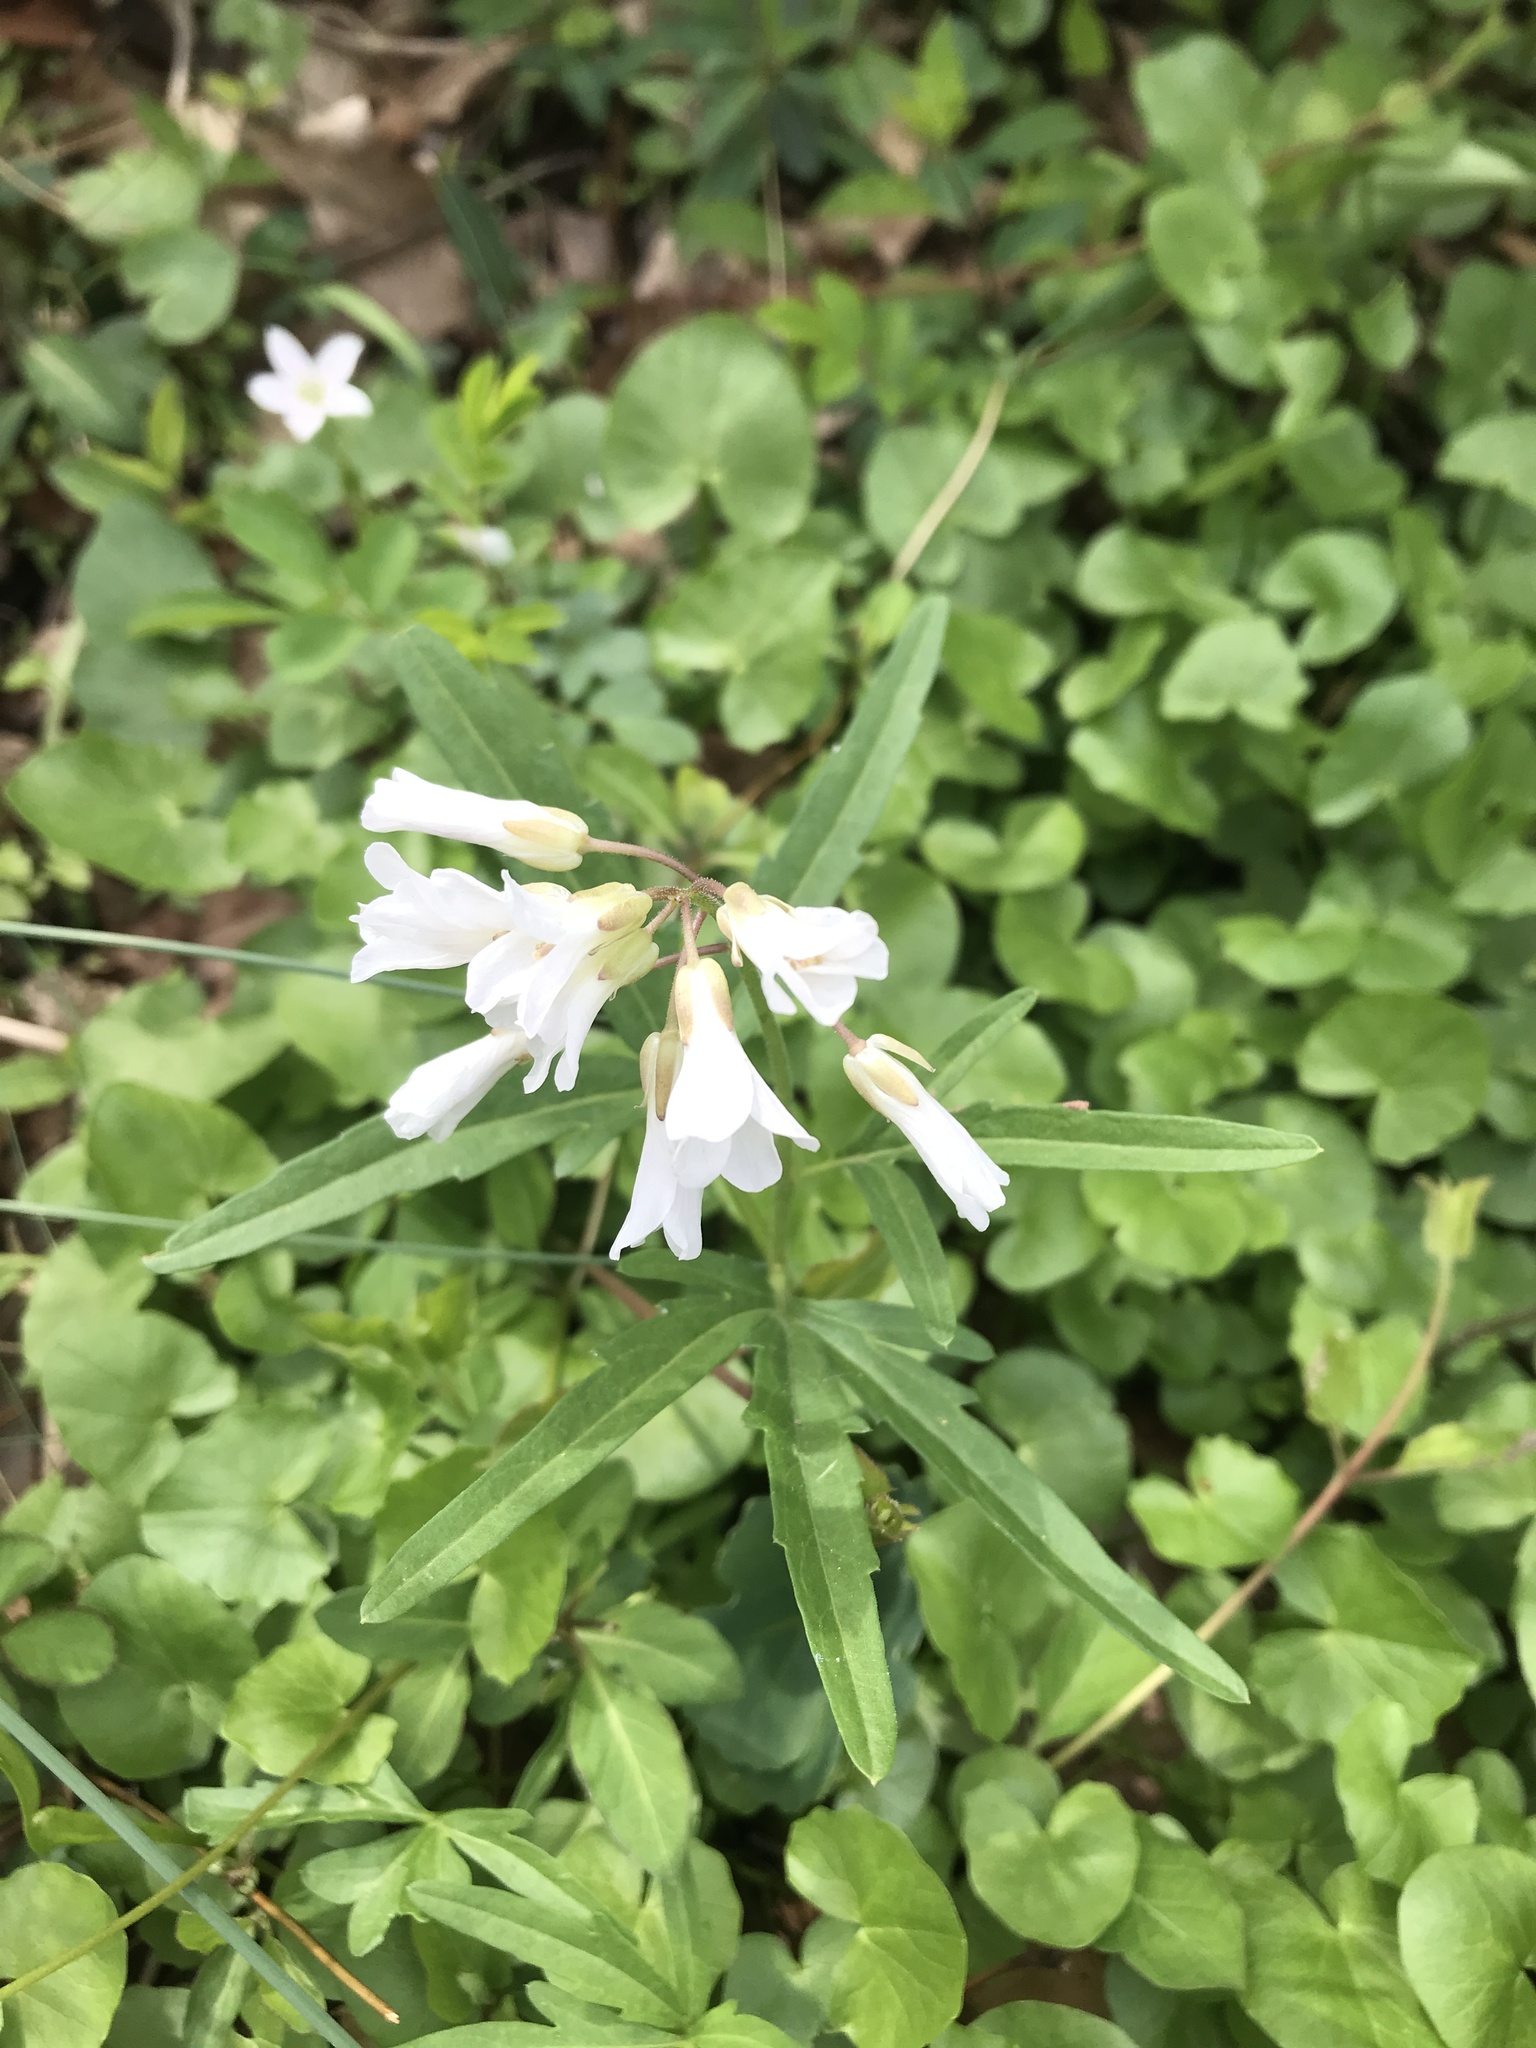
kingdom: Plantae
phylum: Tracheophyta
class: Magnoliopsida
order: Brassicales
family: Brassicaceae
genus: Cardamine
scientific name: Cardamine concatenata
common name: Cut-leaf toothcup
